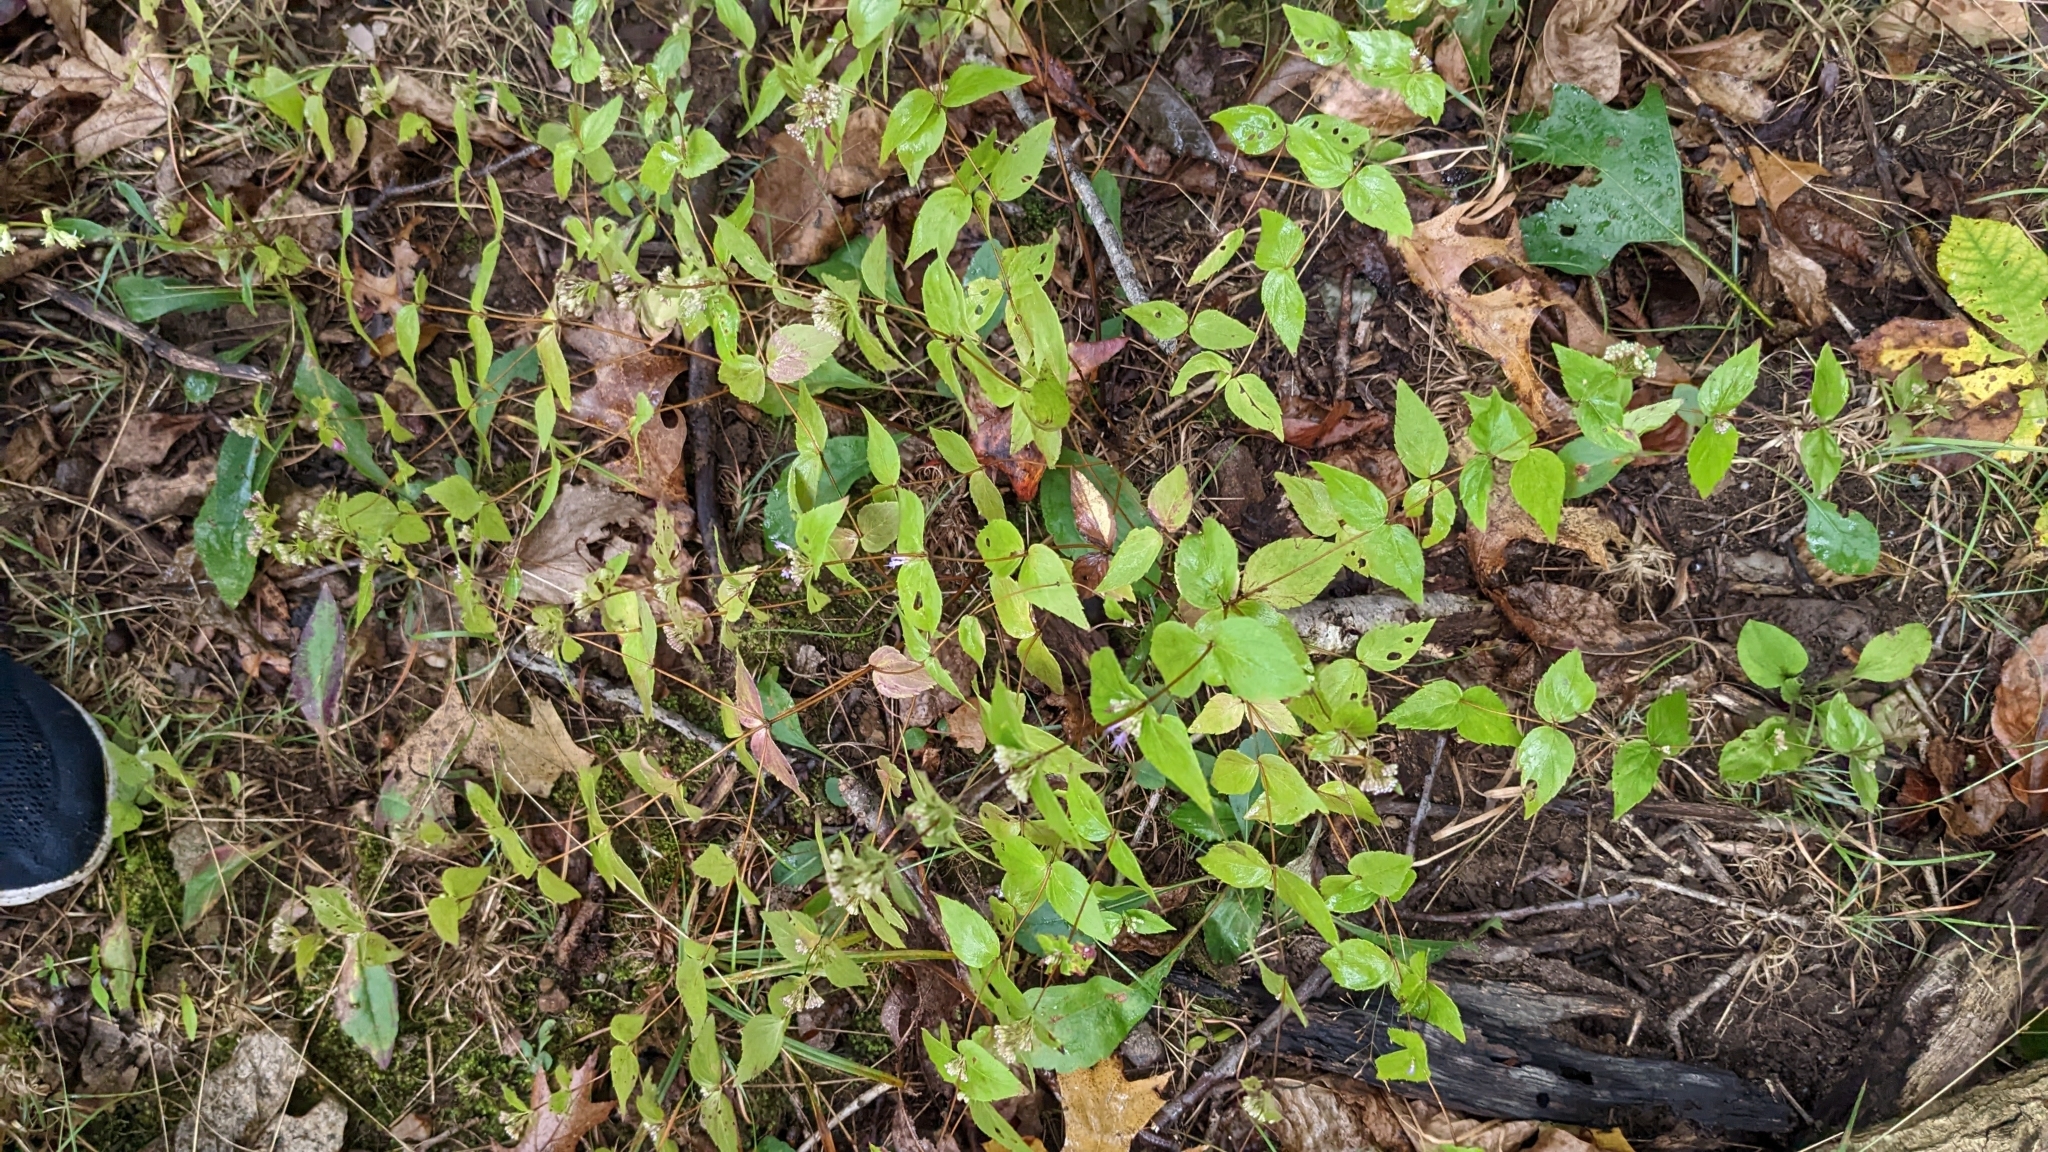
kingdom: Plantae
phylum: Tracheophyta
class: Magnoliopsida
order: Lamiales
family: Lamiaceae
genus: Cunila
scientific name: Cunila origanoides
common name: American dittany
